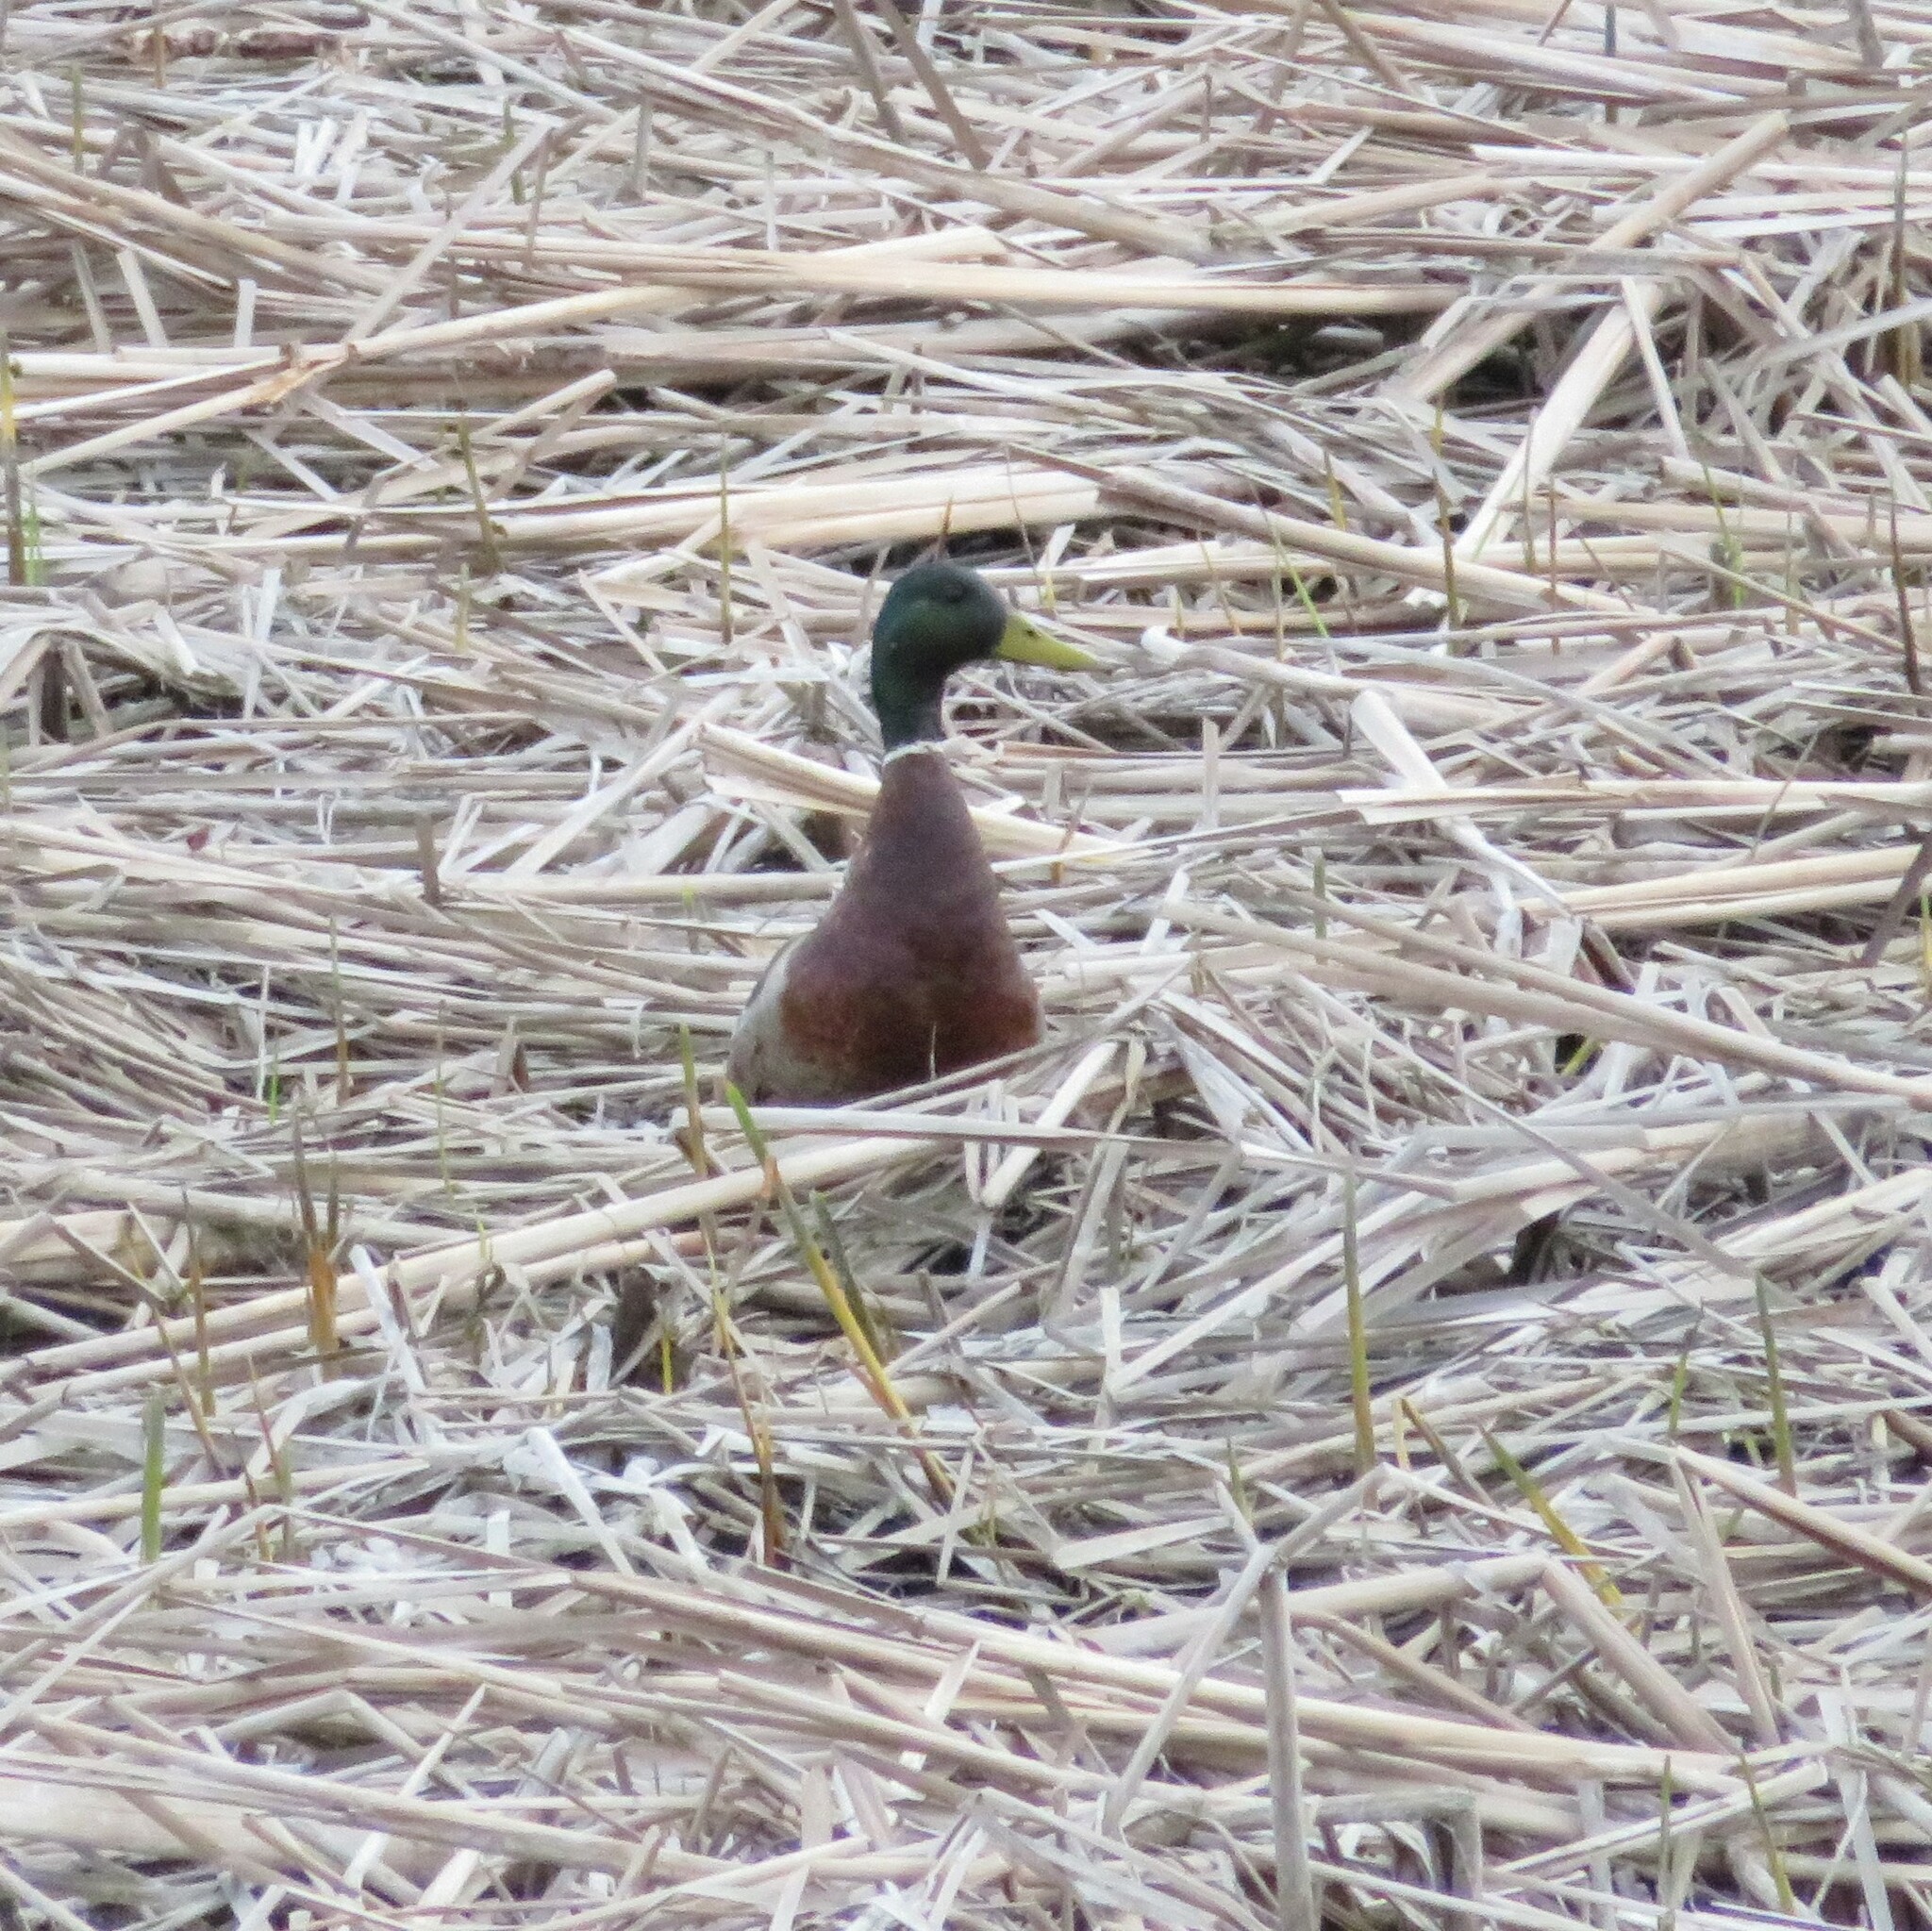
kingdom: Animalia
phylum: Chordata
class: Aves
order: Anseriformes
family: Anatidae
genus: Anas
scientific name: Anas platyrhynchos
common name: Mallard
